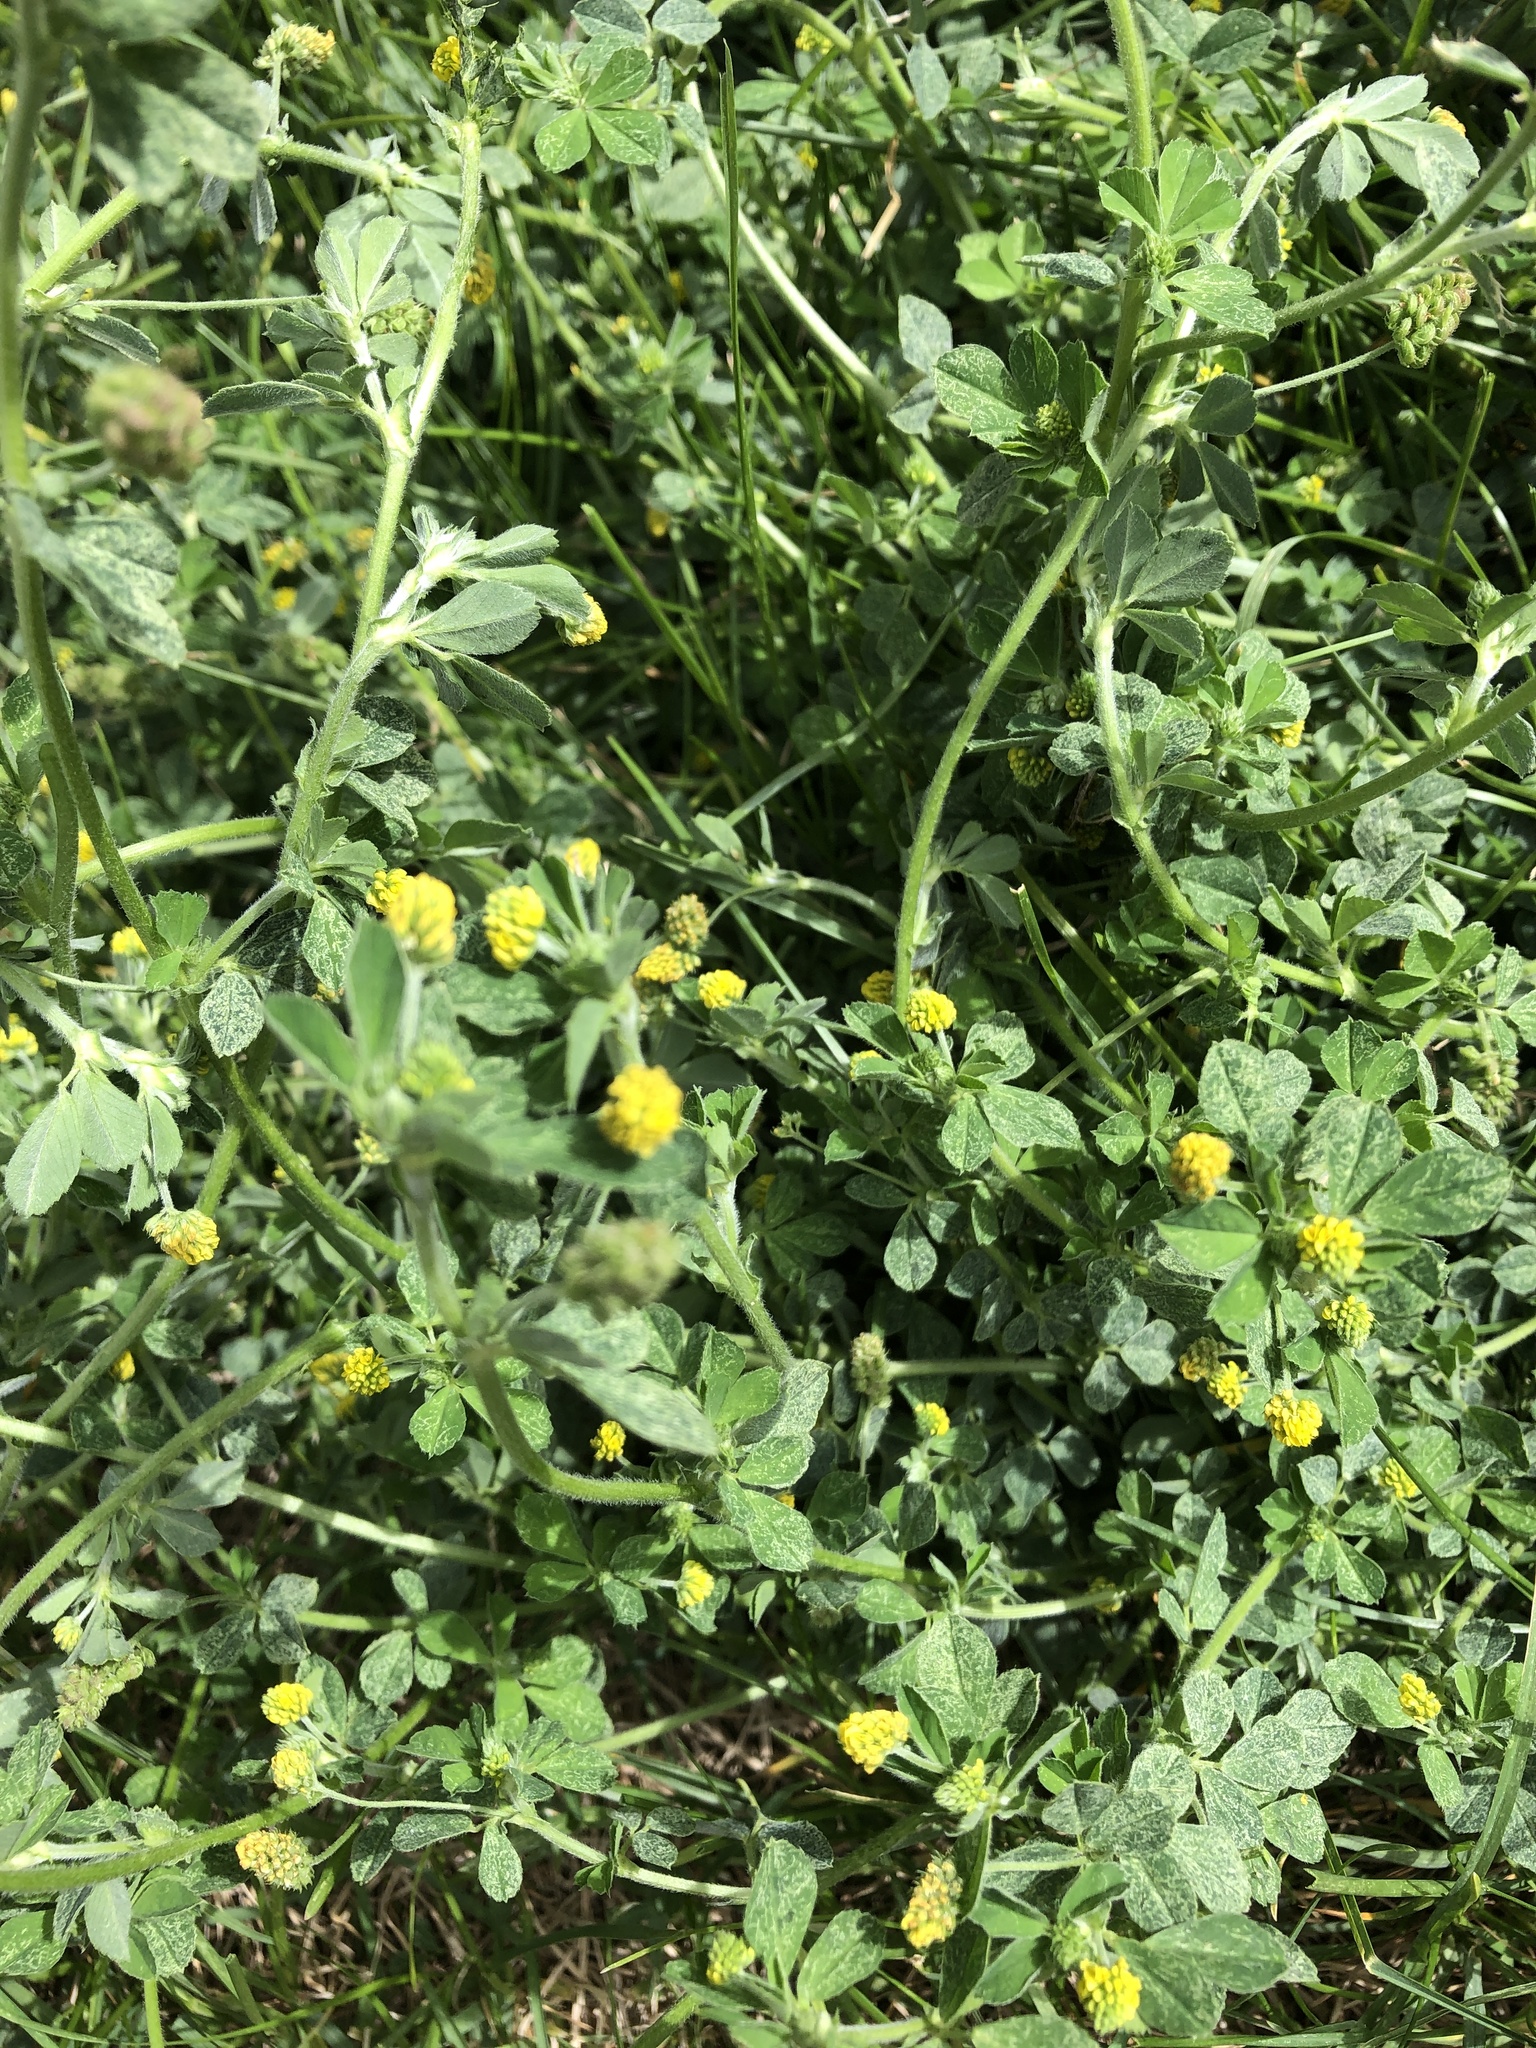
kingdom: Plantae
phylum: Tracheophyta
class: Magnoliopsida
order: Fabales
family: Fabaceae
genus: Medicago
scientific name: Medicago lupulina
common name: Black medick
